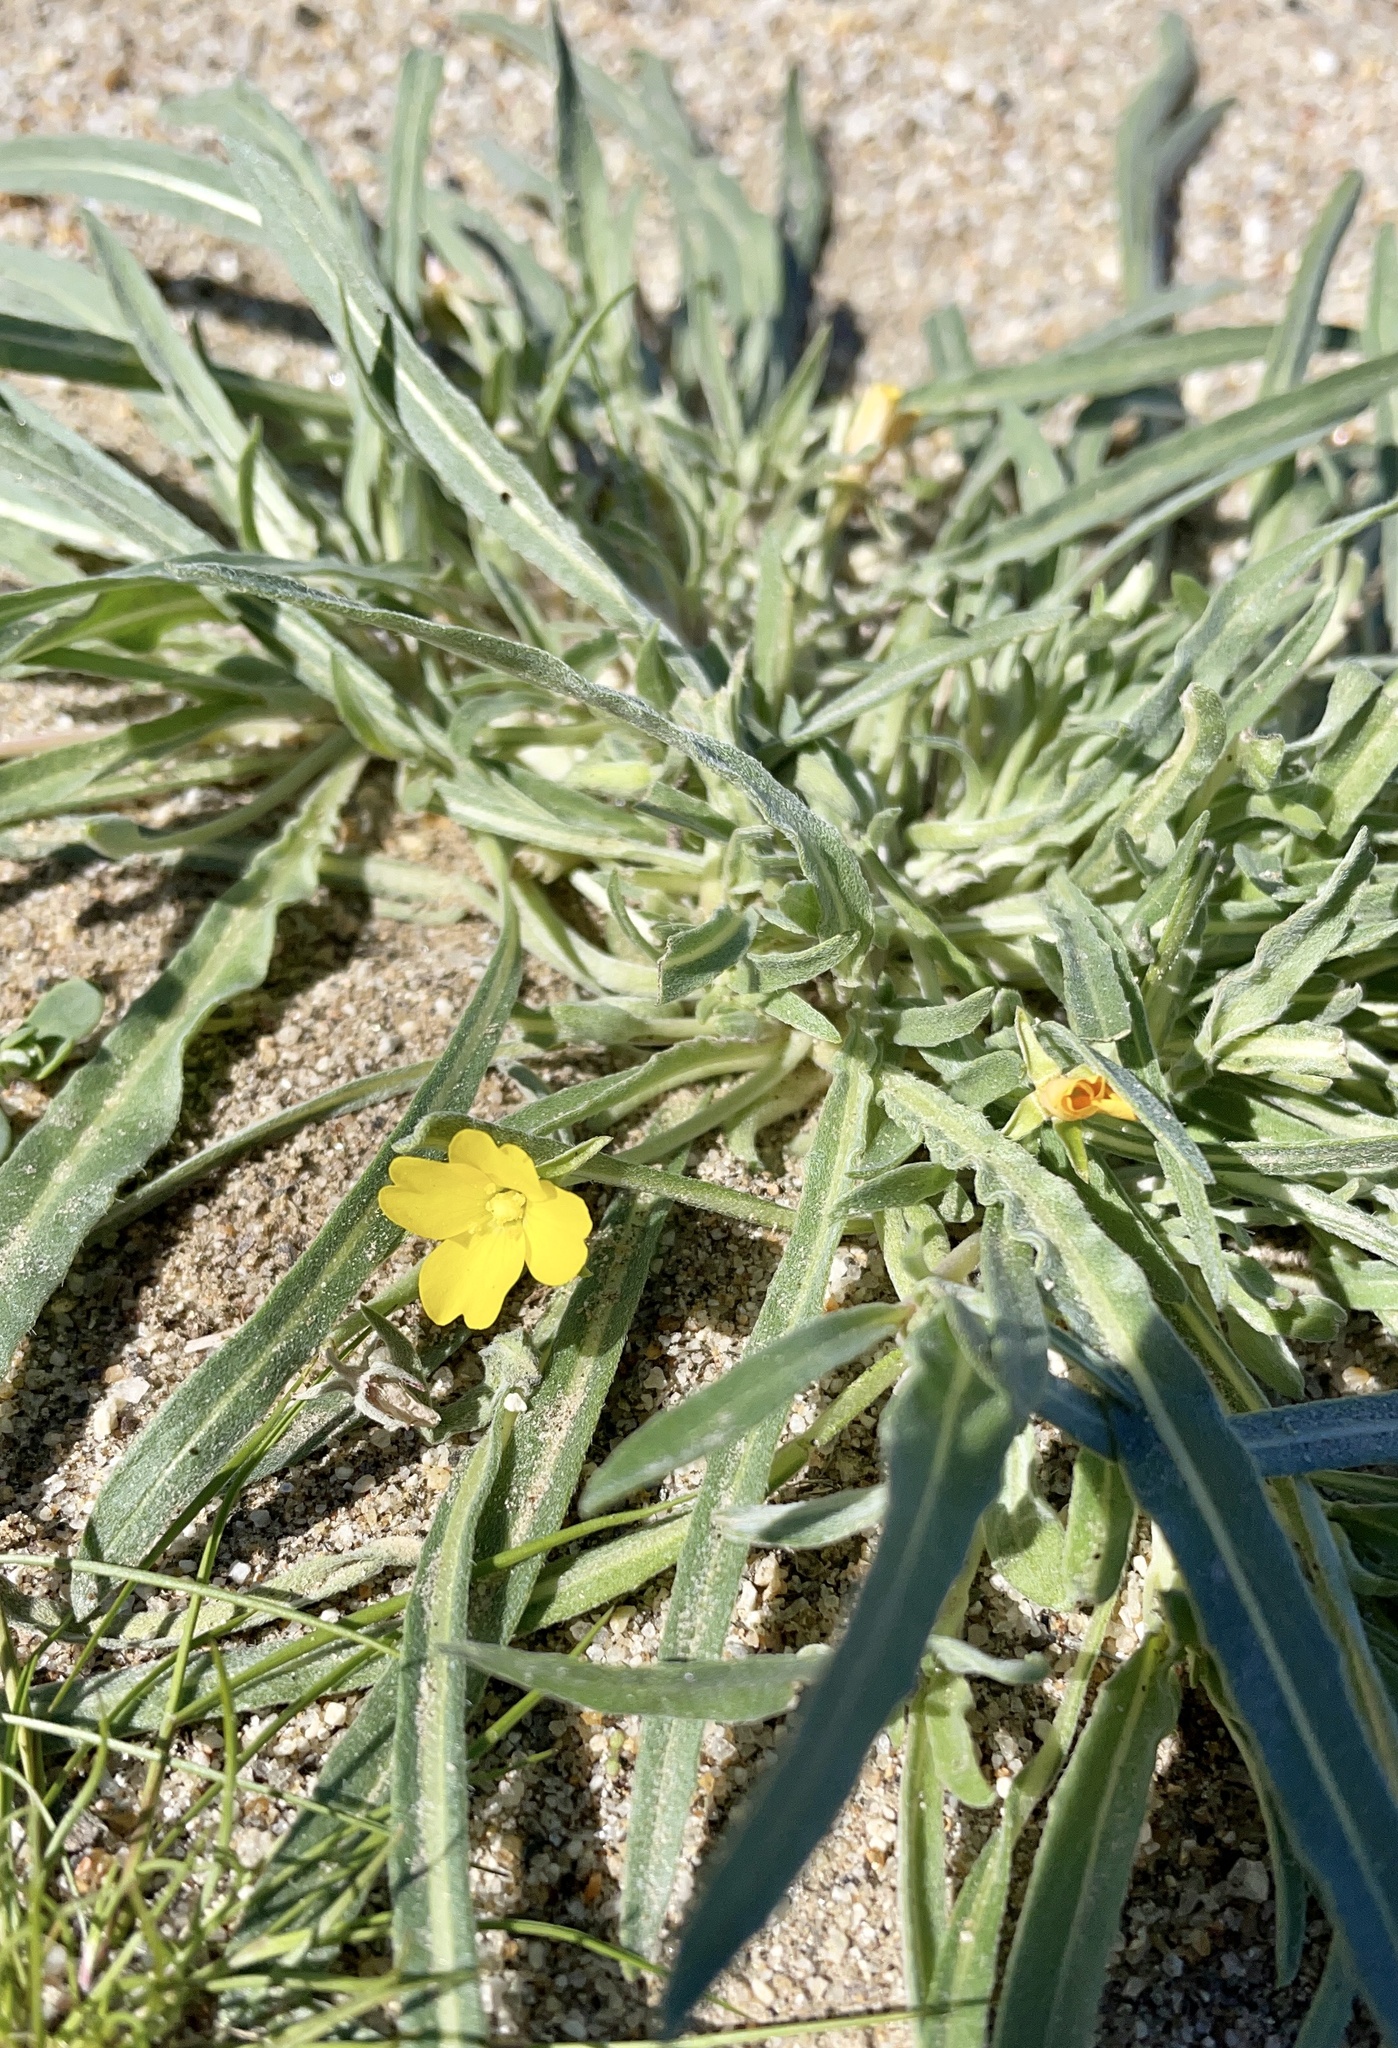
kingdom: Plantae
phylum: Tracheophyta
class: Magnoliopsida
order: Myrtales
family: Onagraceae
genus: Camissoniopsis
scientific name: Camissoniopsis pallida
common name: Paleyellow suncup
